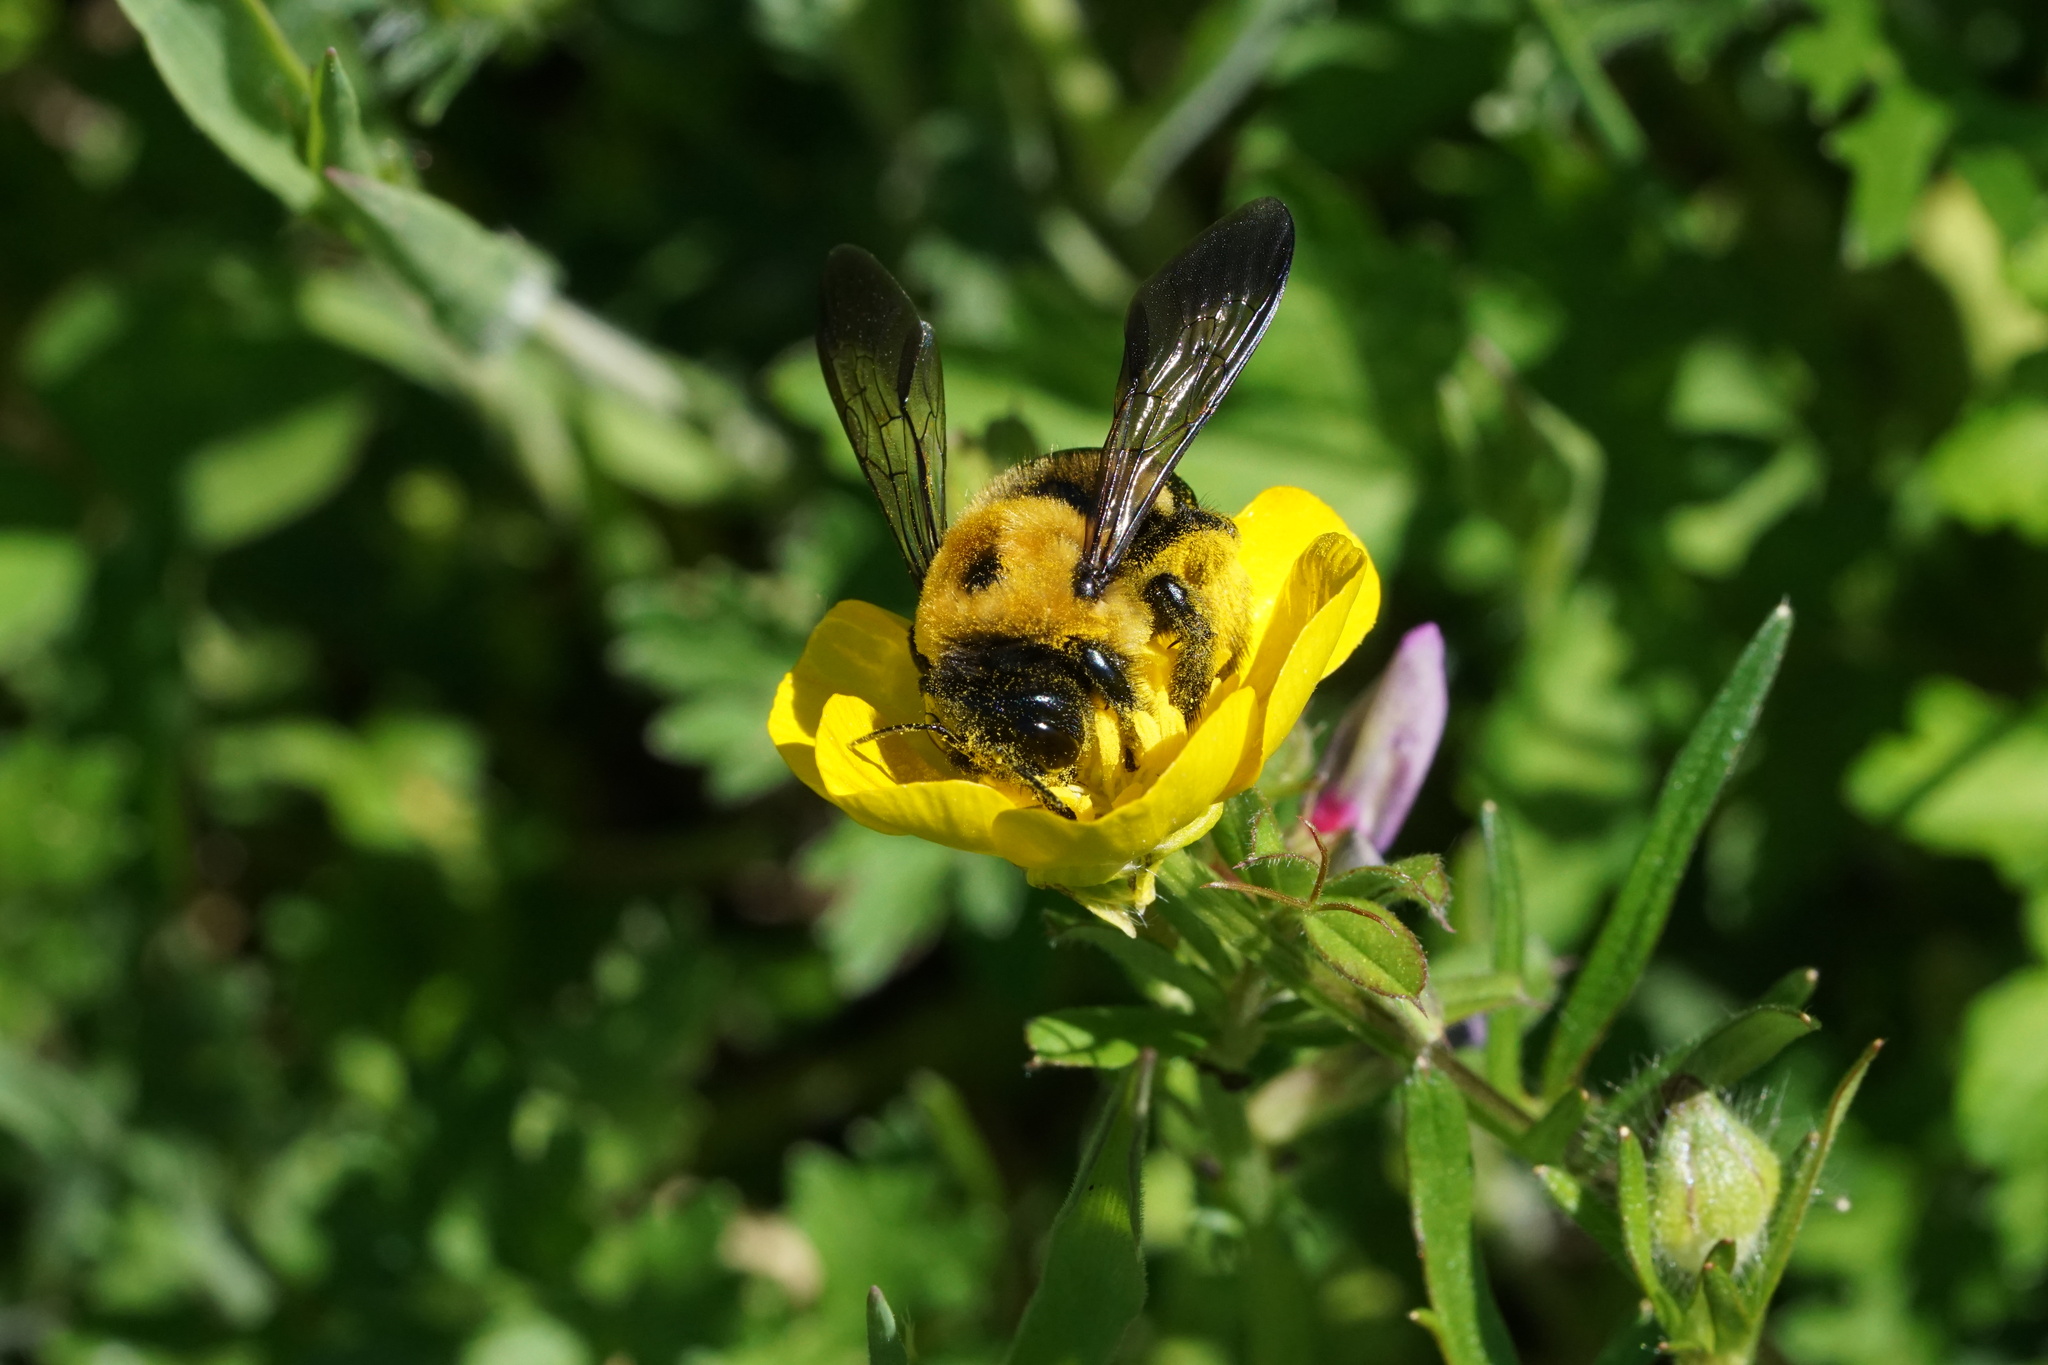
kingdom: Animalia
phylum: Arthropoda
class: Insecta
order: Hymenoptera
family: Apidae
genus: Xylocopa
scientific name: Xylocopa virginica
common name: Carpenter bee
